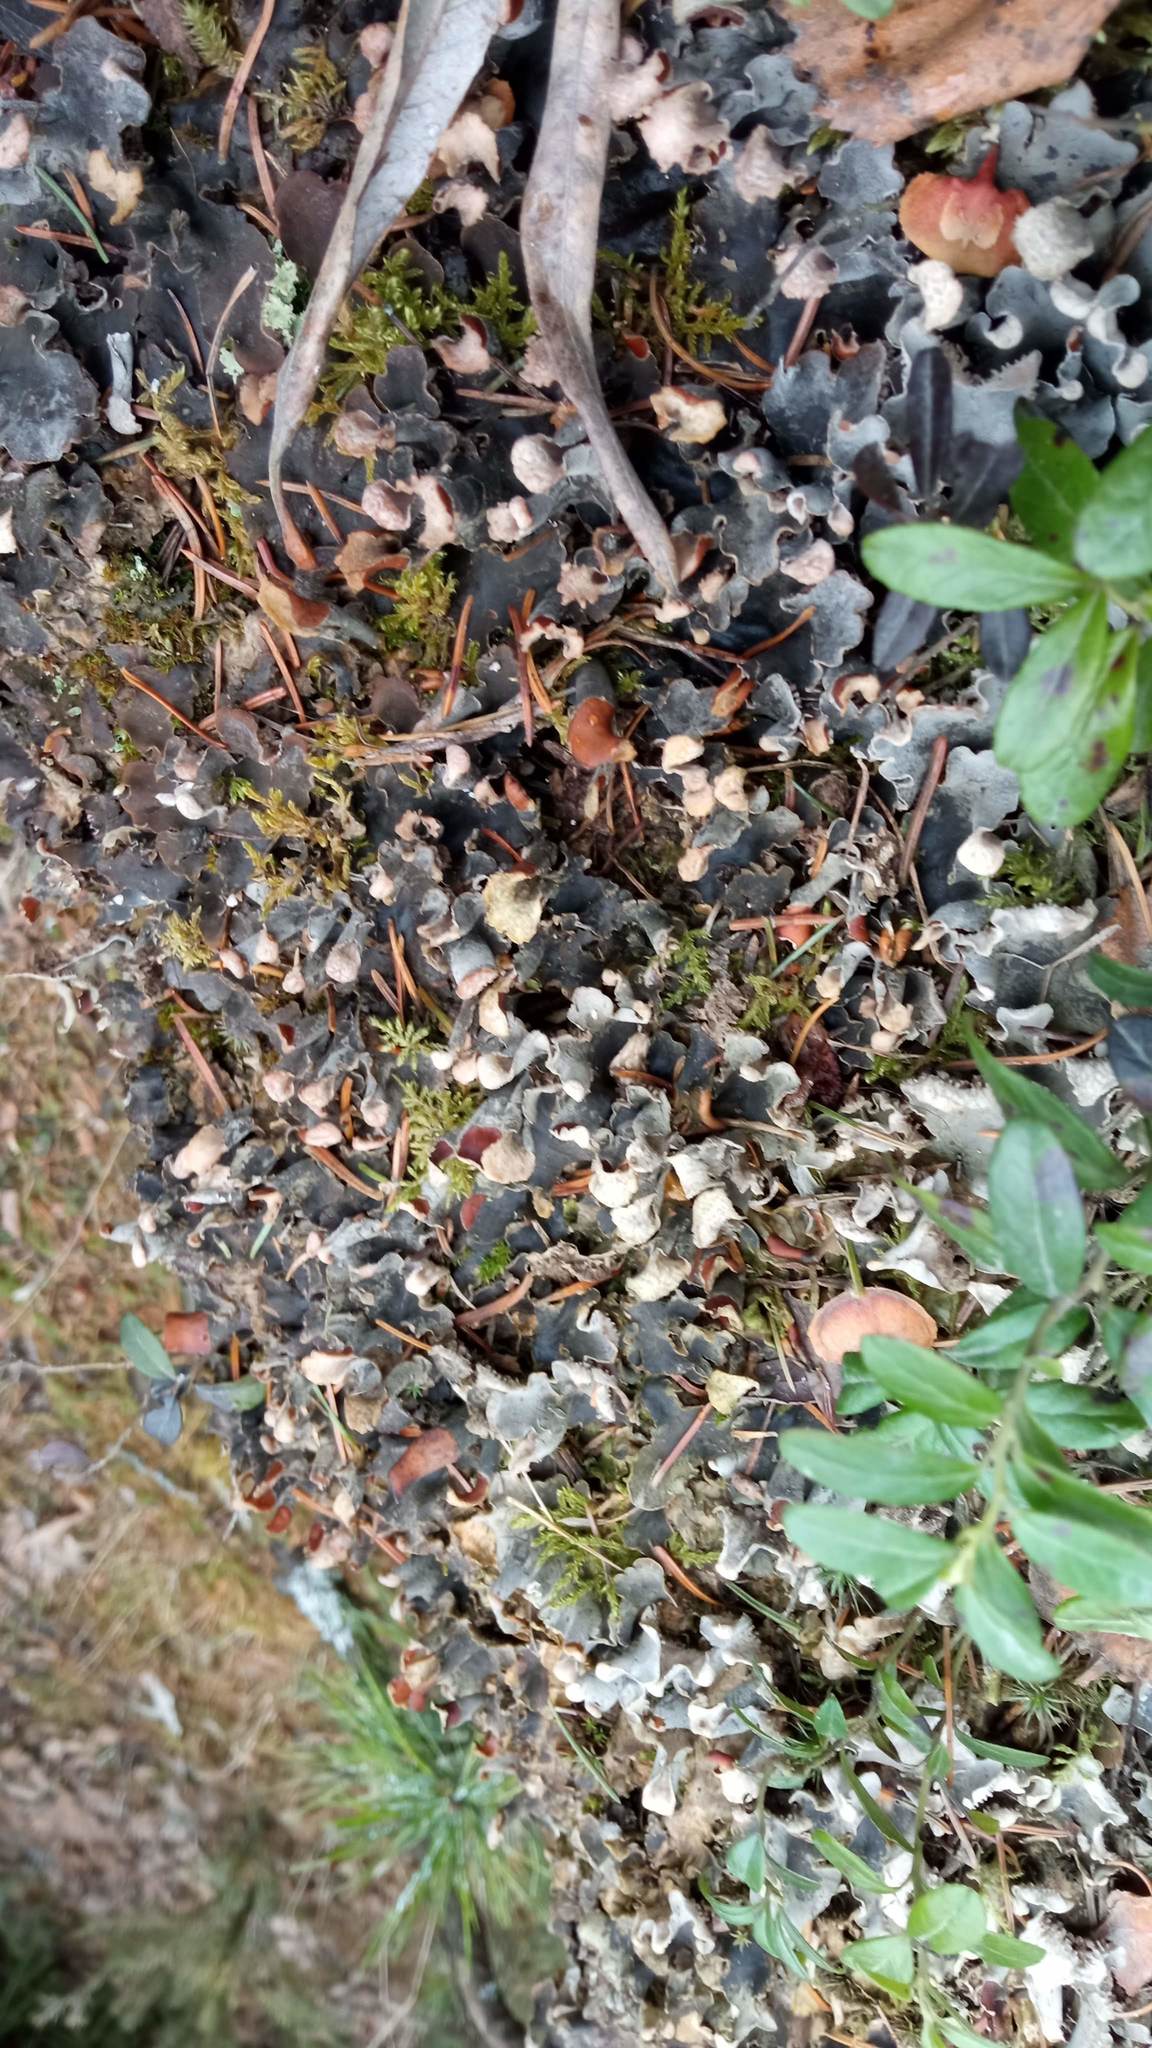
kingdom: Fungi
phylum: Ascomycota
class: Lecanoromycetes
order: Peltigerales
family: Peltigeraceae
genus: Peltigera
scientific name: Peltigera praetextata
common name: Scaly dog-lichen
